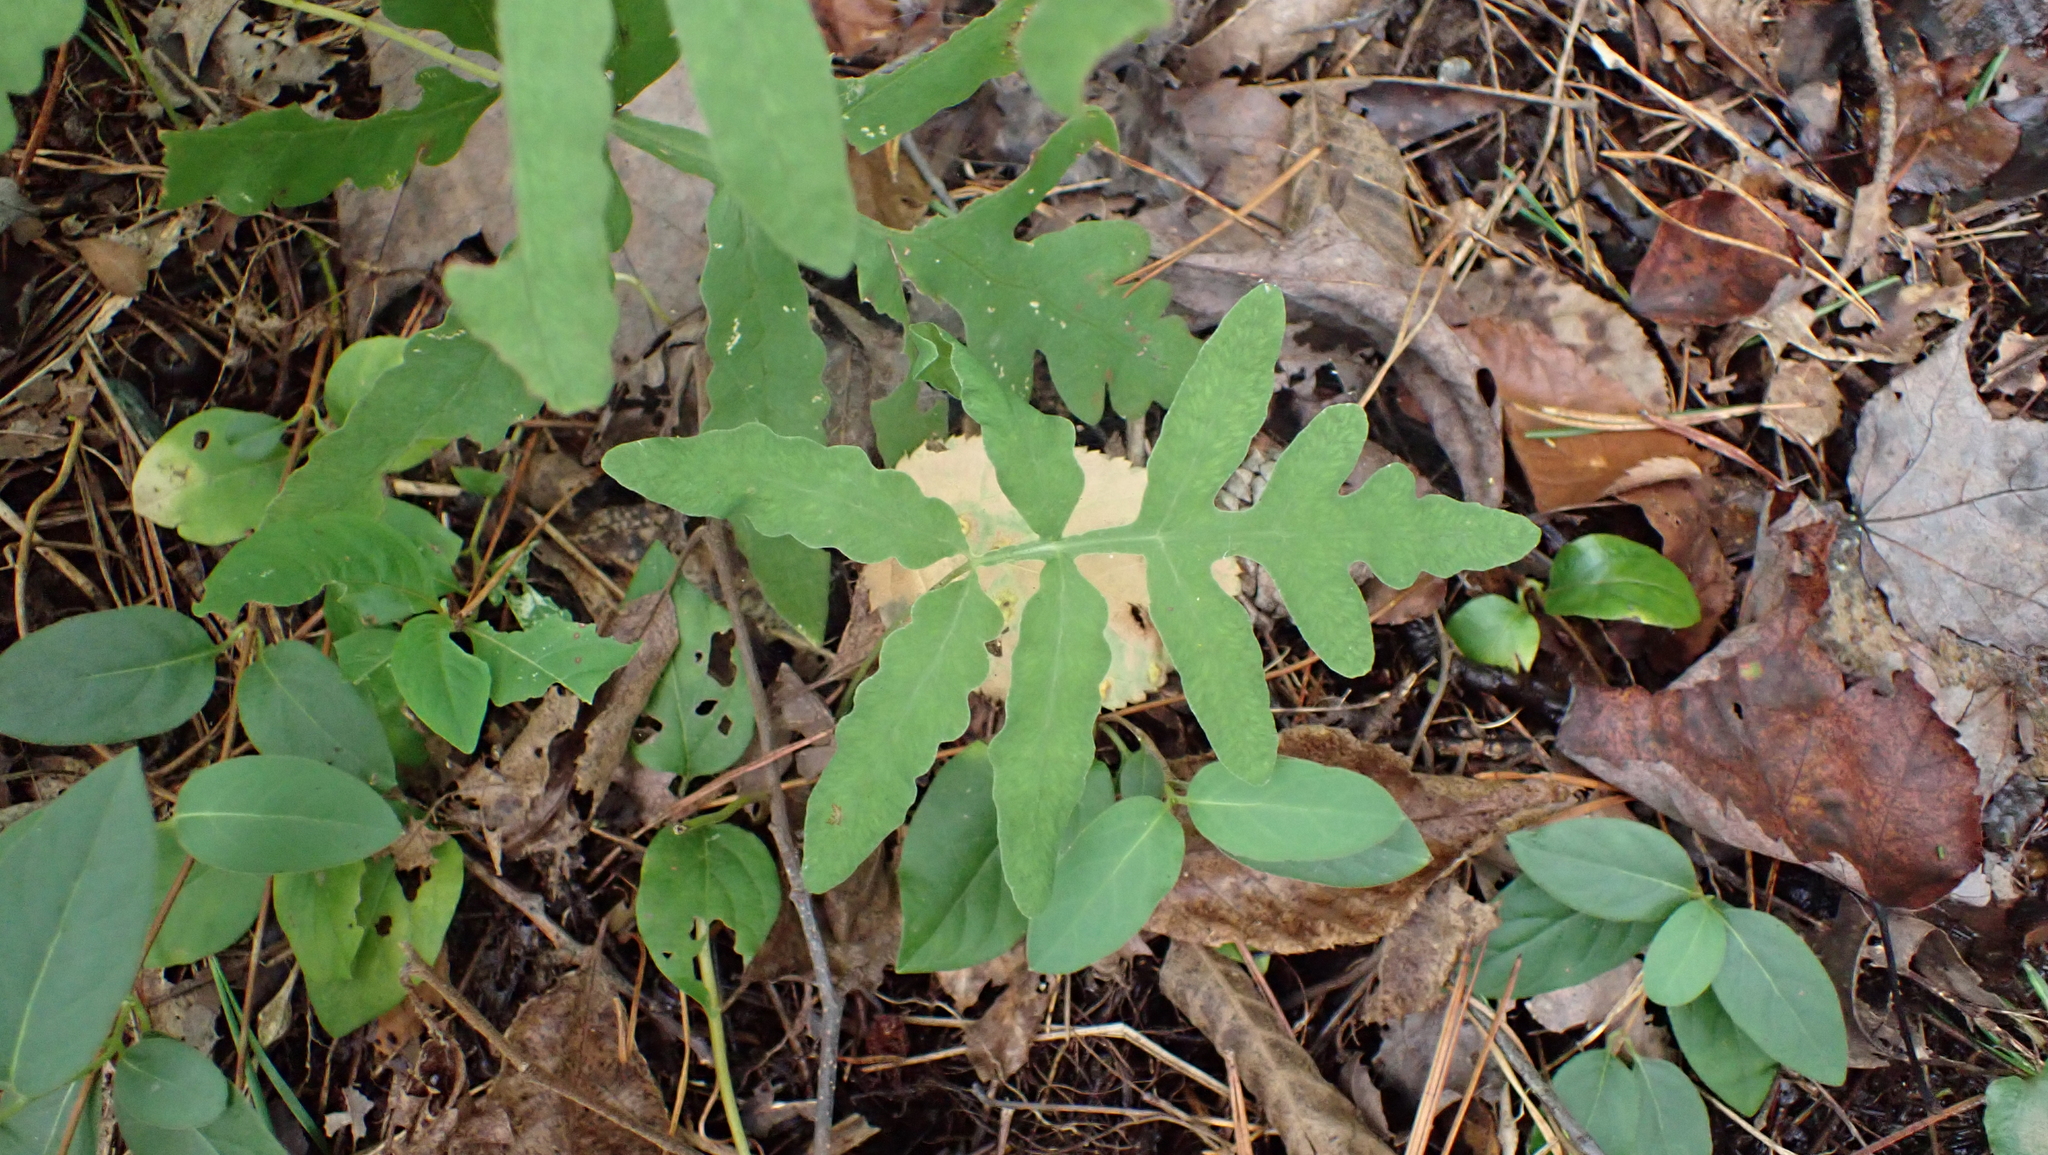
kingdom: Plantae
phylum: Tracheophyta
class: Polypodiopsida
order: Polypodiales
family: Onocleaceae
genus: Onoclea
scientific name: Onoclea sensibilis
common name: Sensitive fern
